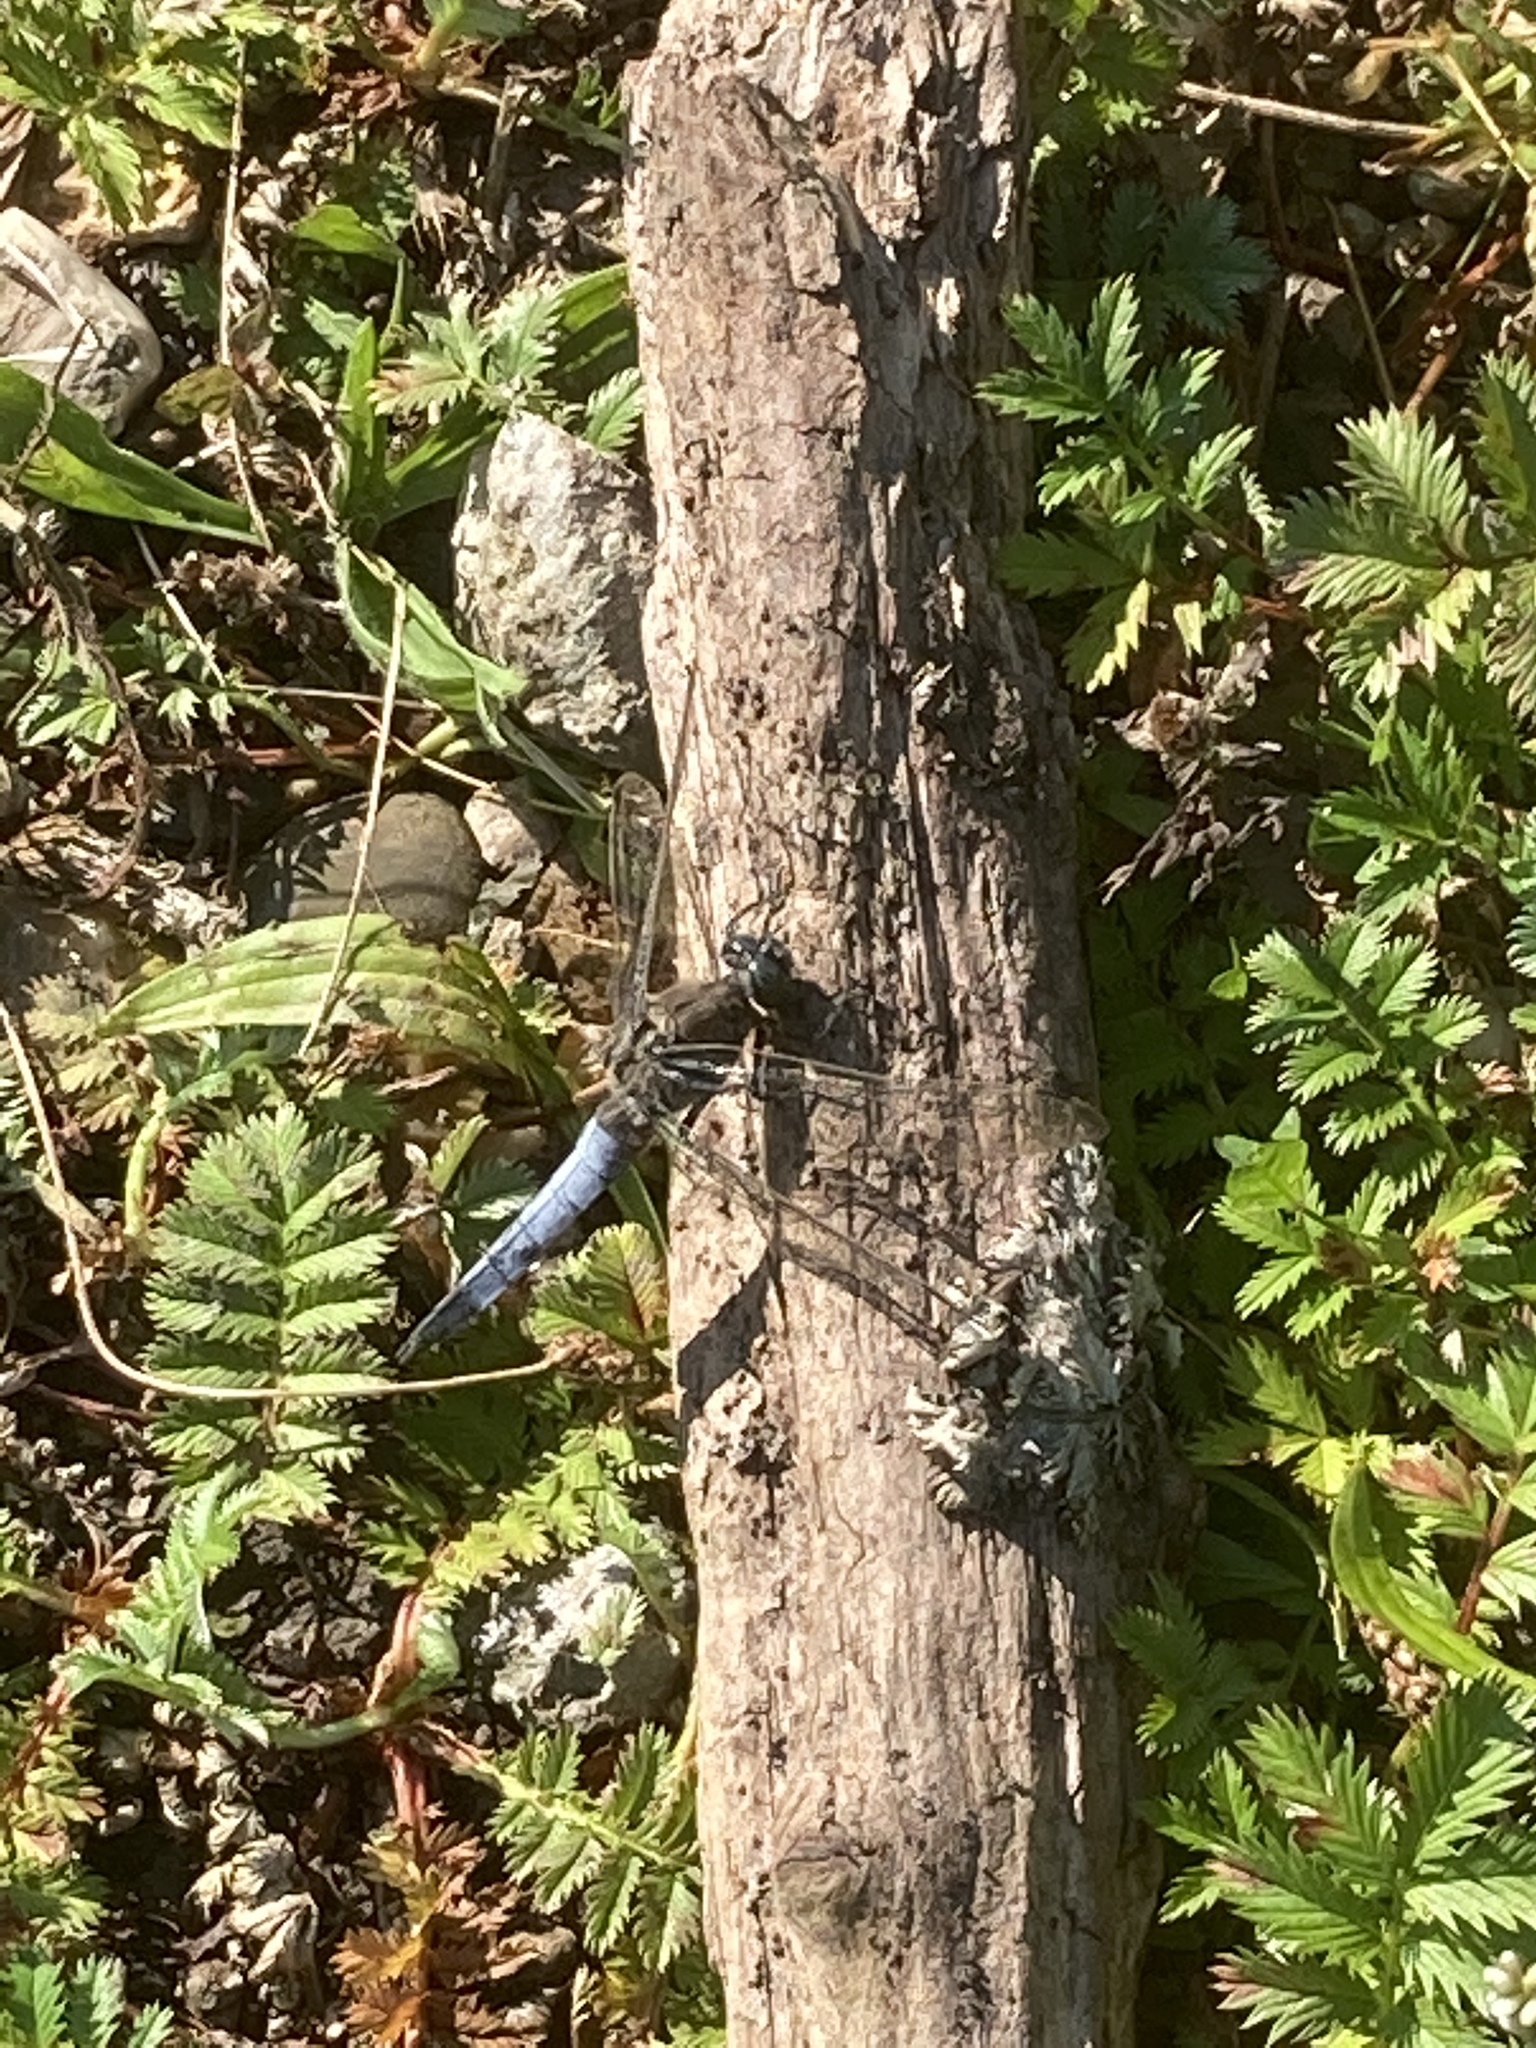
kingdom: Animalia
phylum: Arthropoda
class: Insecta
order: Odonata
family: Libellulidae
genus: Orthetrum
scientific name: Orthetrum cancellatum
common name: Black-tailed skimmer
